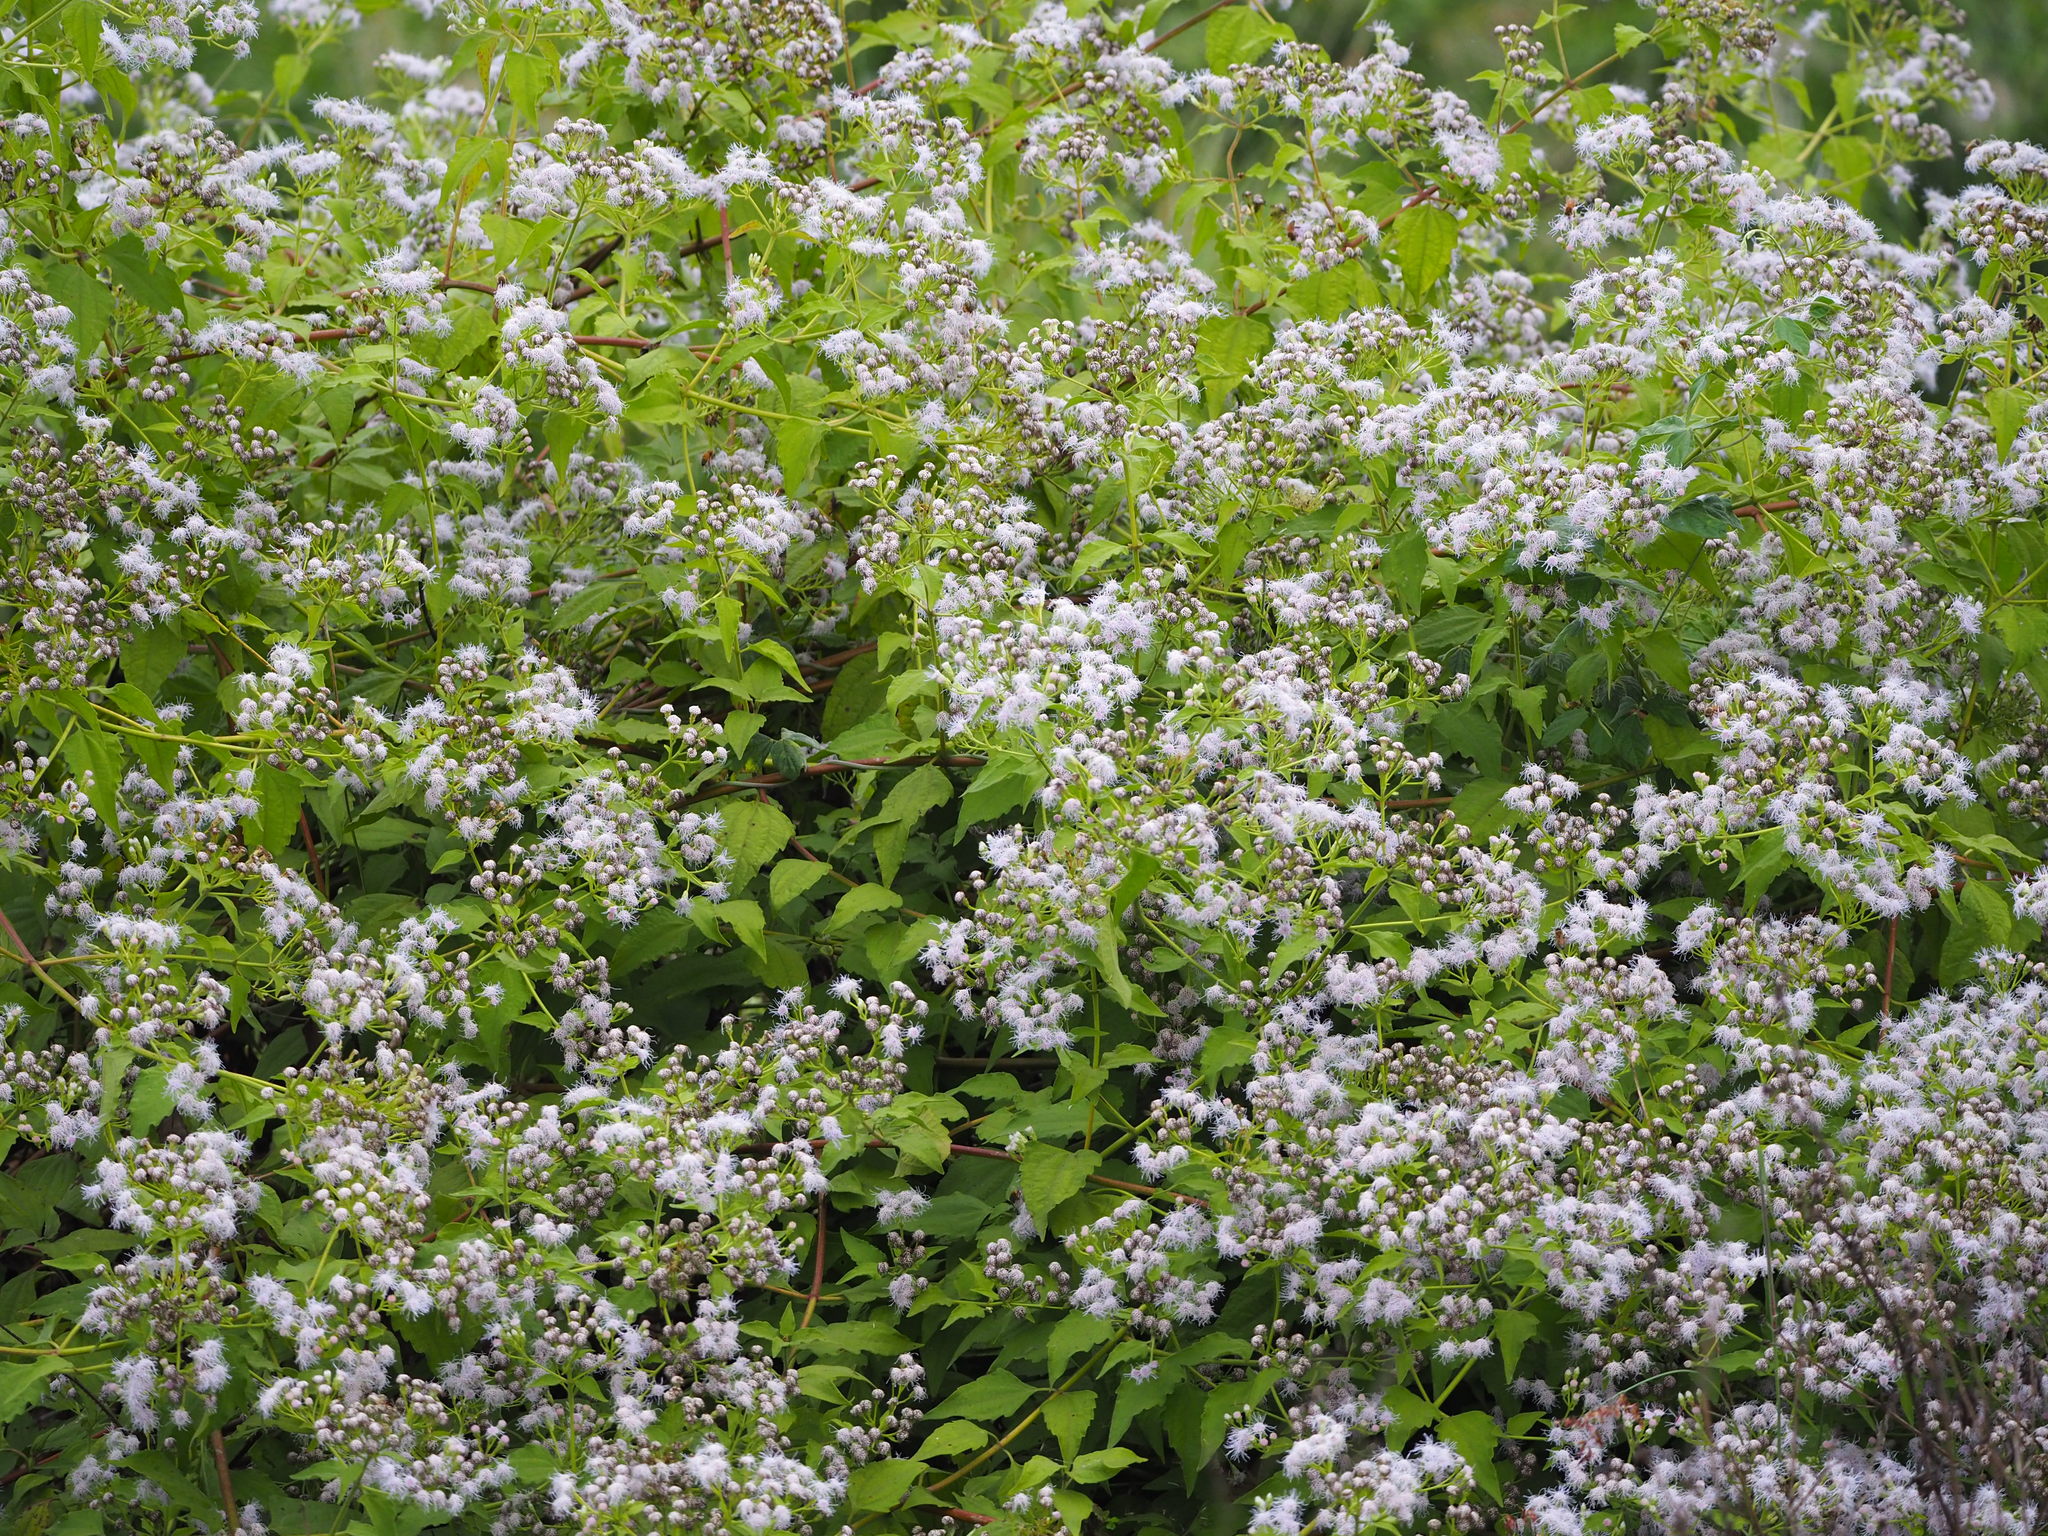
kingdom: Plantae
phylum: Tracheophyta
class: Magnoliopsida
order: Asterales
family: Asteraceae
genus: Chromolaena
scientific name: Chromolaena odorata
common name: Siamweed
